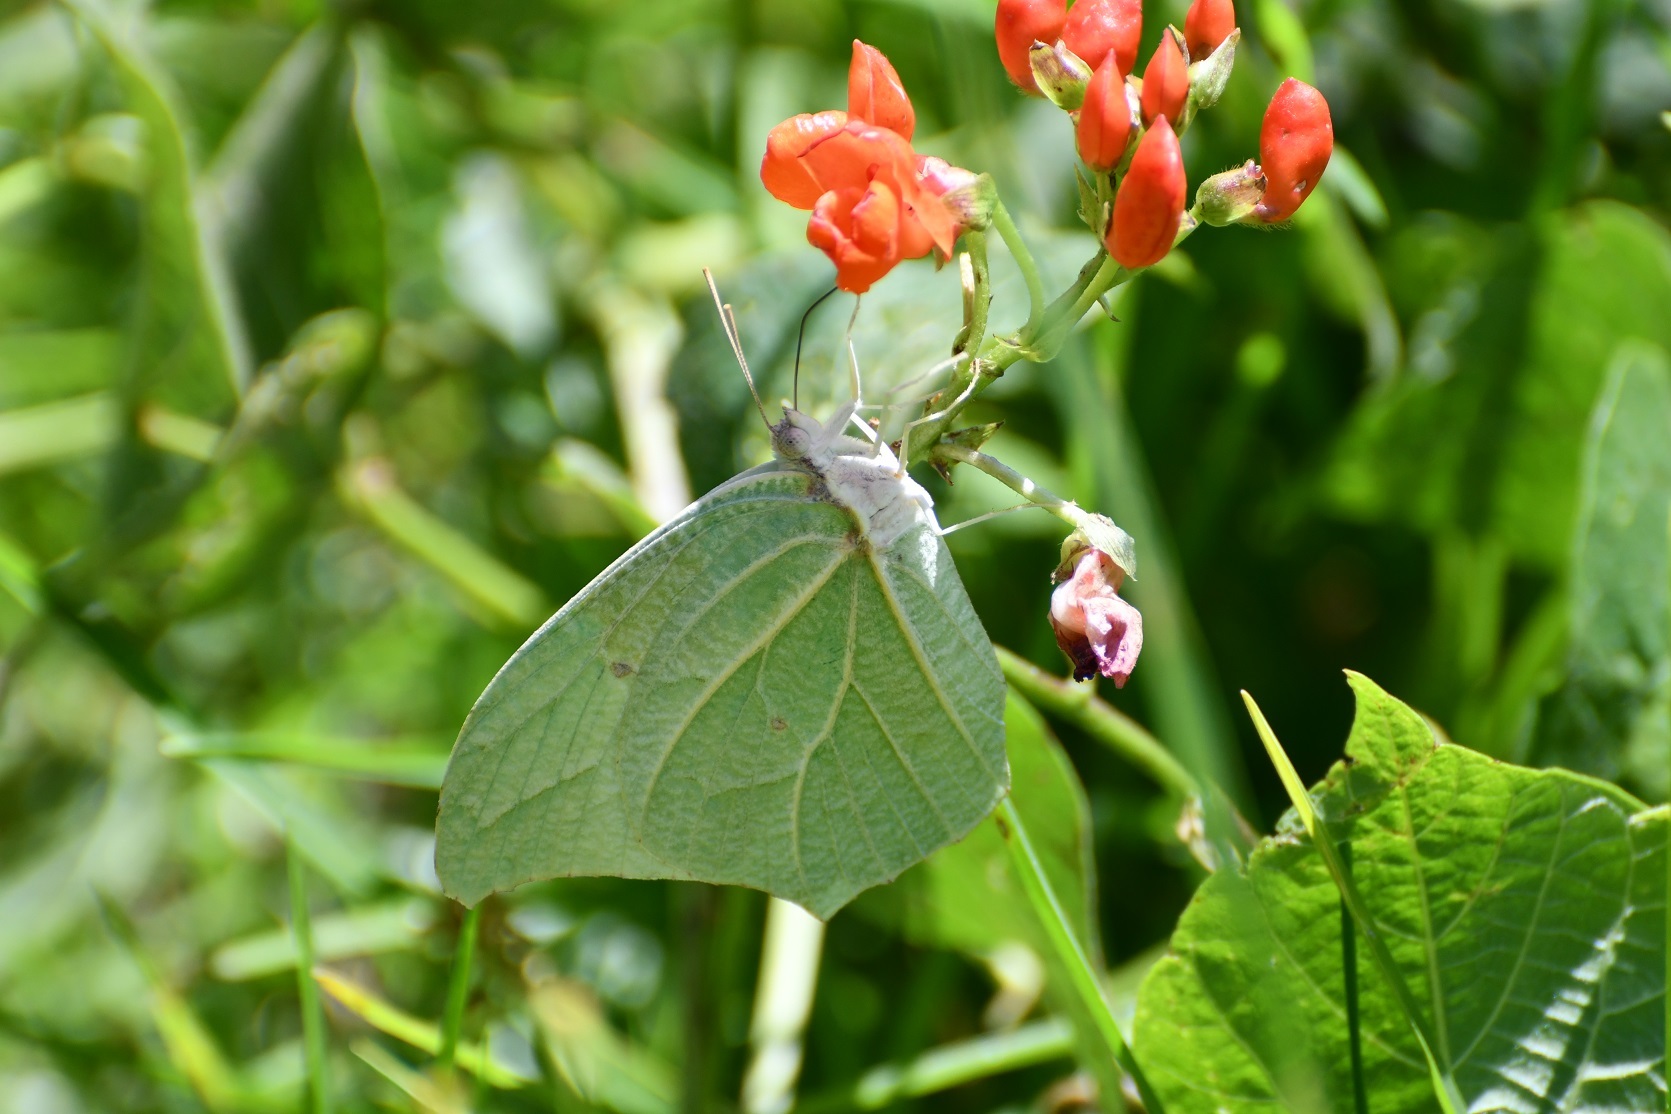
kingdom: Animalia
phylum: Arthropoda
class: Insecta
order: Lepidoptera
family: Pieridae
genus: Anteos
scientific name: Anteos clorinde
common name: White angled sulphur
